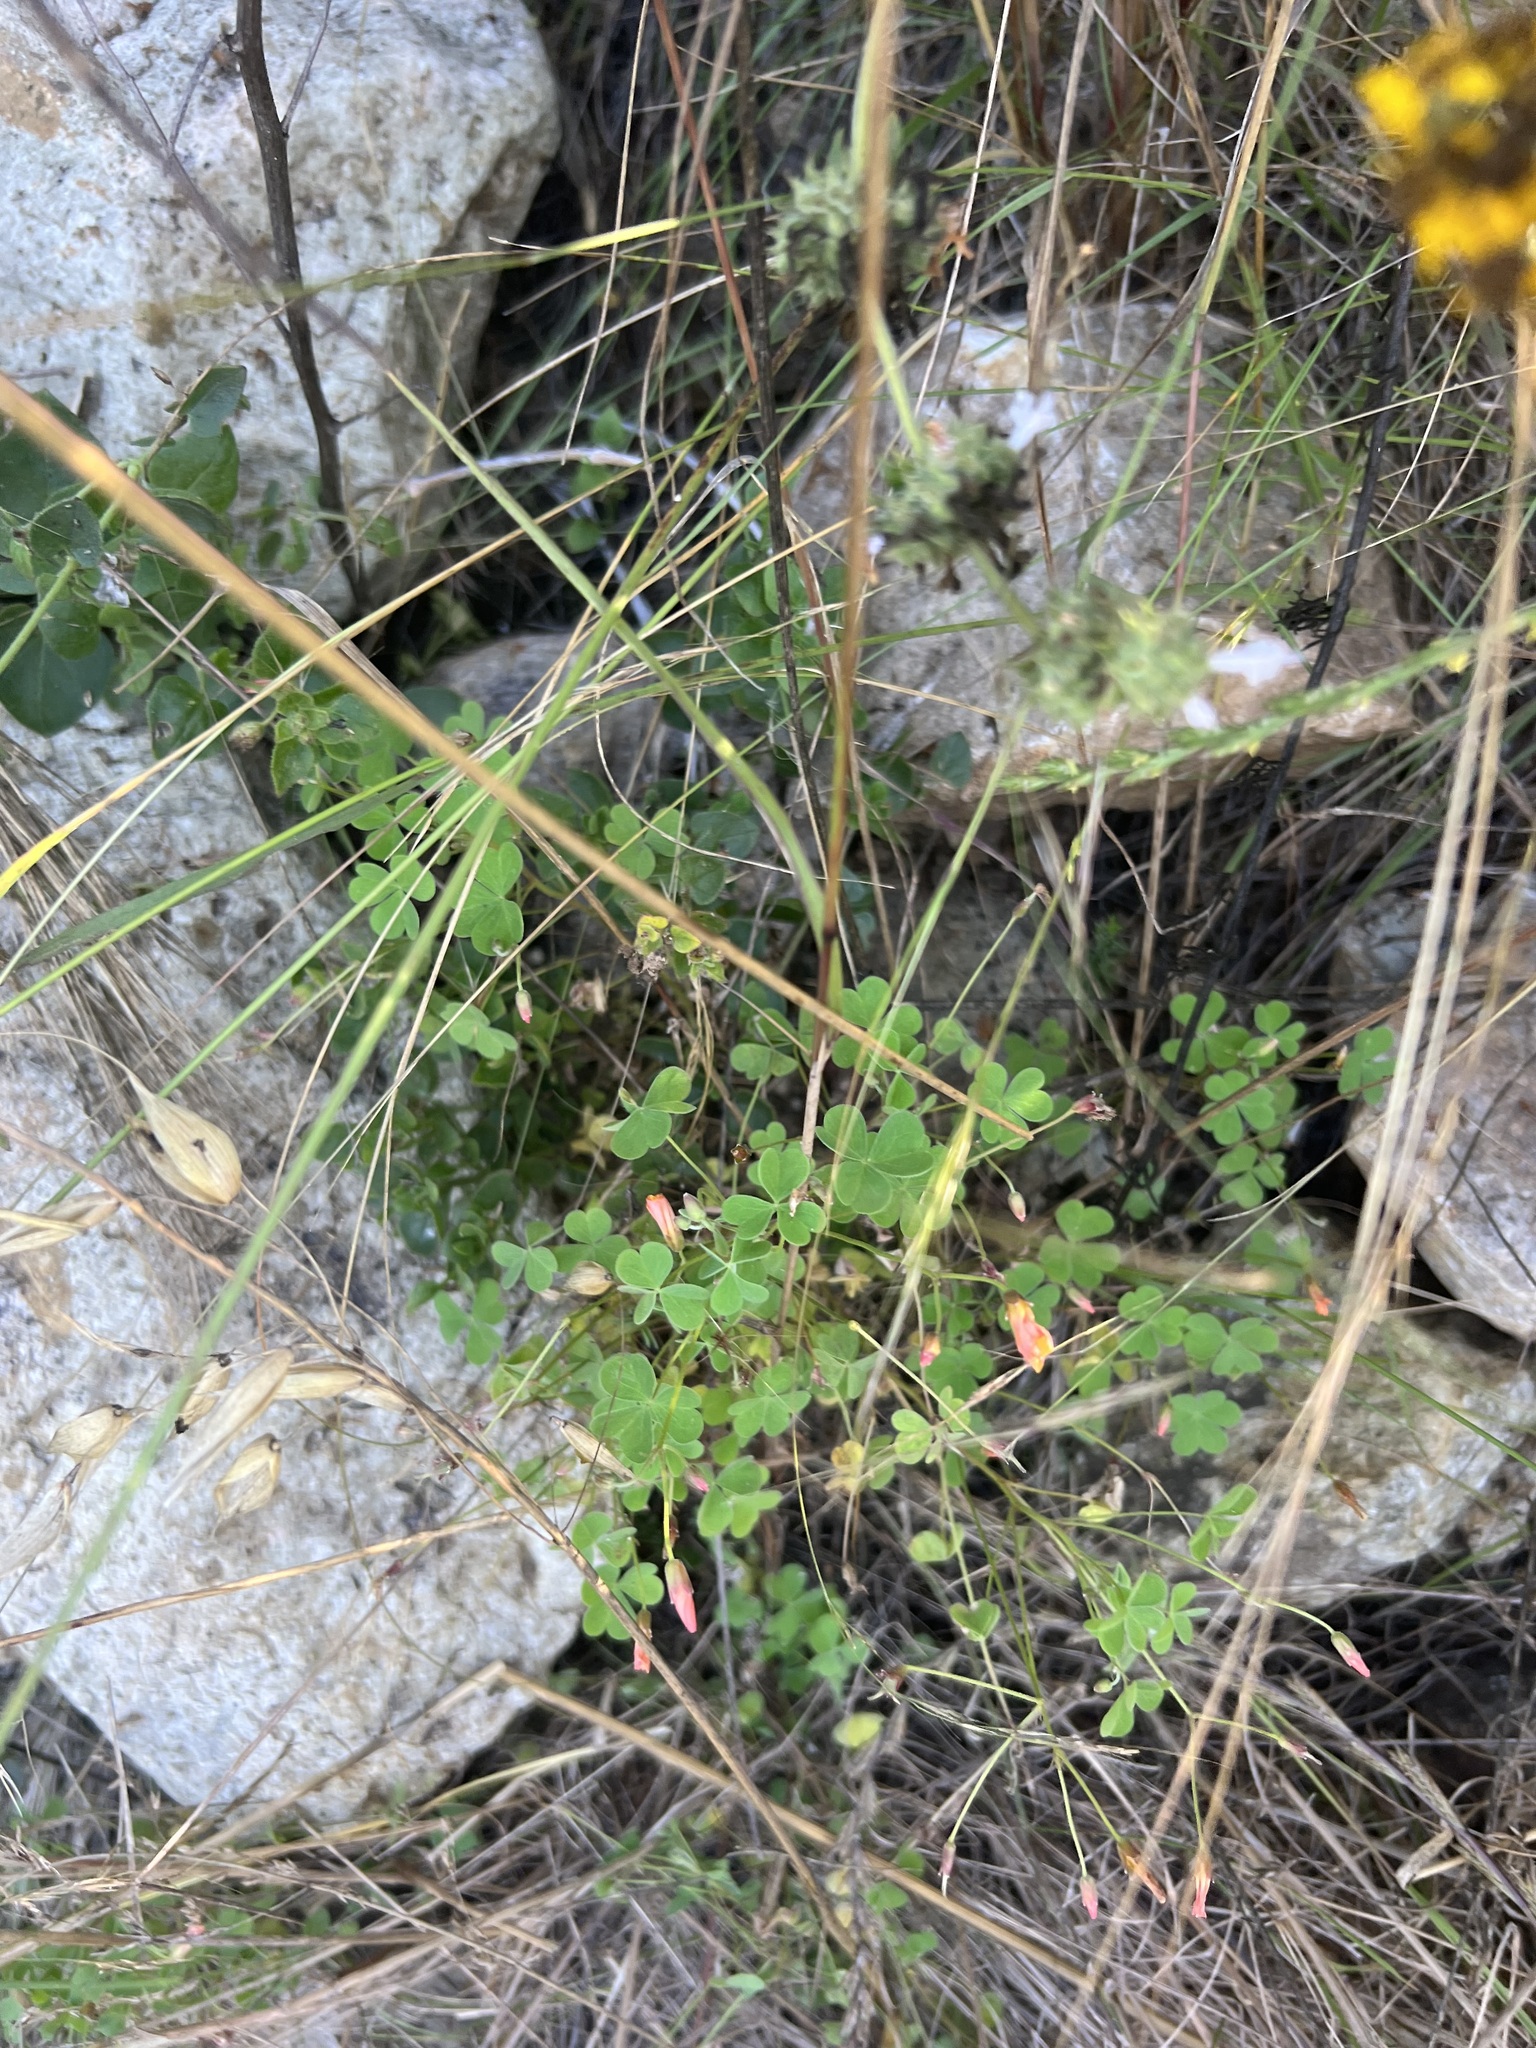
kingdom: Plantae
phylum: Tracheophyta
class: Magnoliopsida
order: Oxalidales
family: Oxalidaceae
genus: Oxalis
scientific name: Oxalis californica
